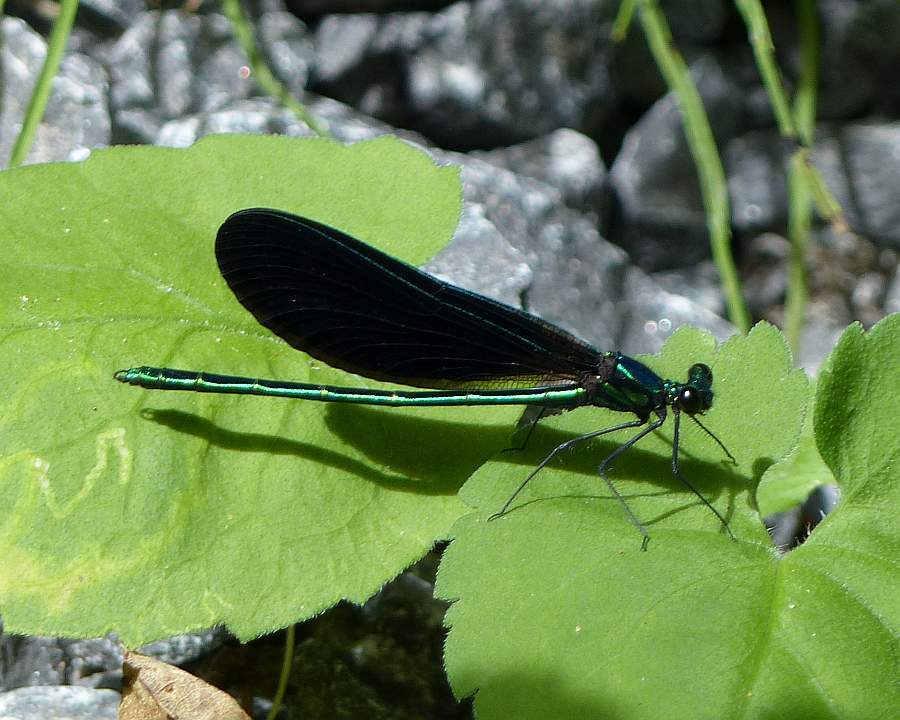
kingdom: Animalia
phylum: Arthropoda
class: Insecta
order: Odonata
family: Calopterygidae
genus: Calopteryx
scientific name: Calopteryx maculata
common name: Ebony jewelwing
